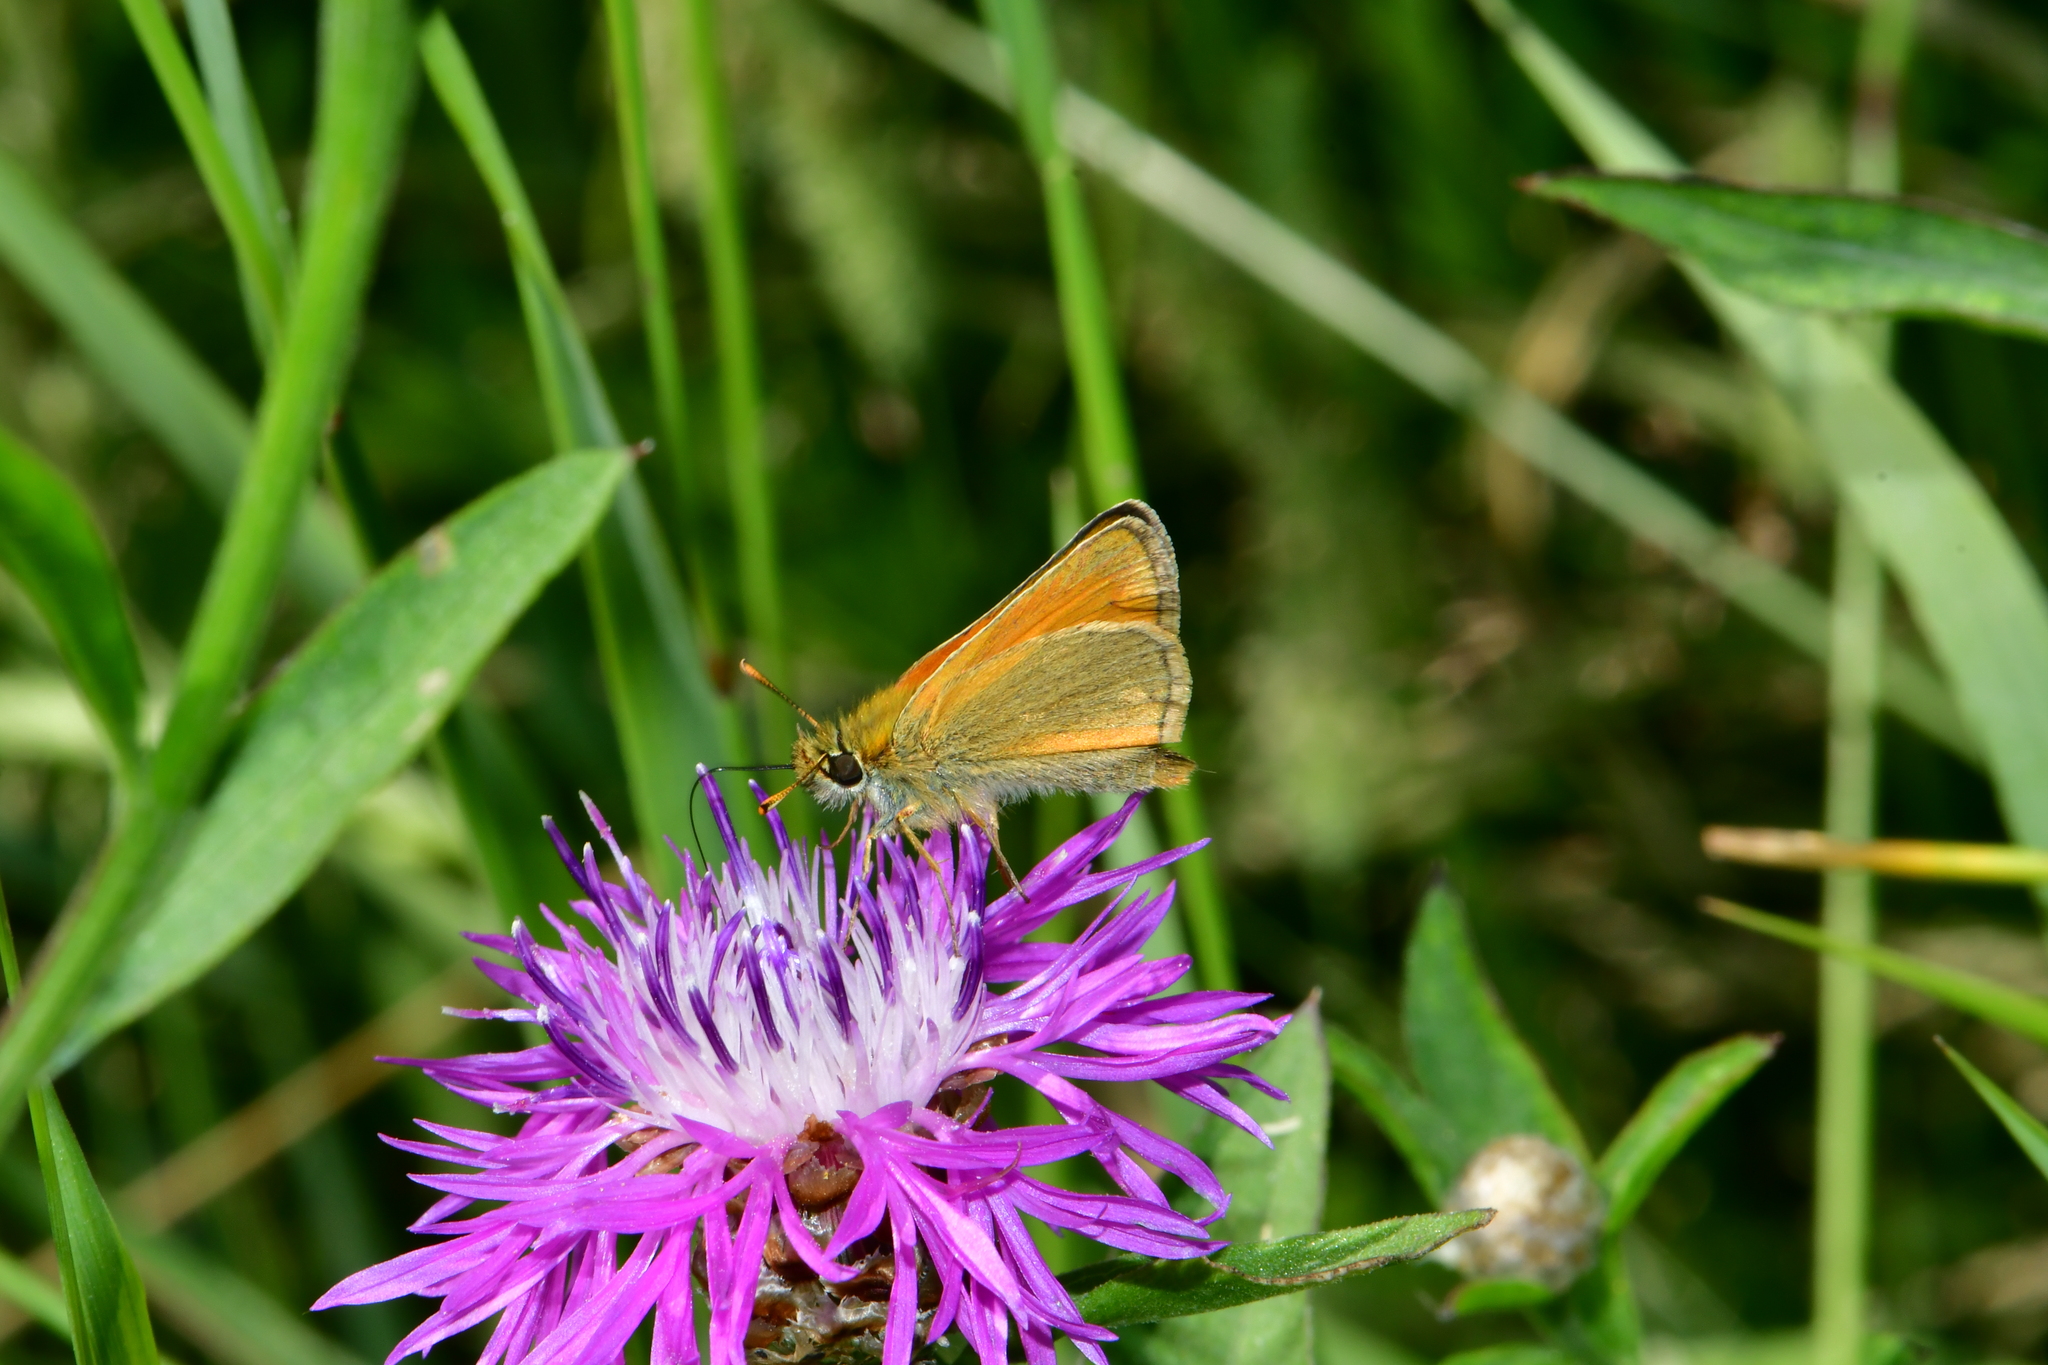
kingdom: Animalia
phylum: Arthropoda
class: Insecta
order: Lepidoptera
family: Hesperiidae
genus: Thymelicus
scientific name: Thymelicus sylvestris
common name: Small skipper
